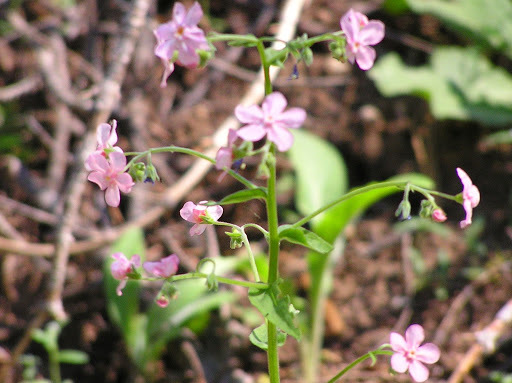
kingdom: Plantae
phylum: Tracheophyta
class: Magnoliopsida
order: Boraginales
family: Boraginaceae
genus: Hackelia
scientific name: Hackelia mundula
